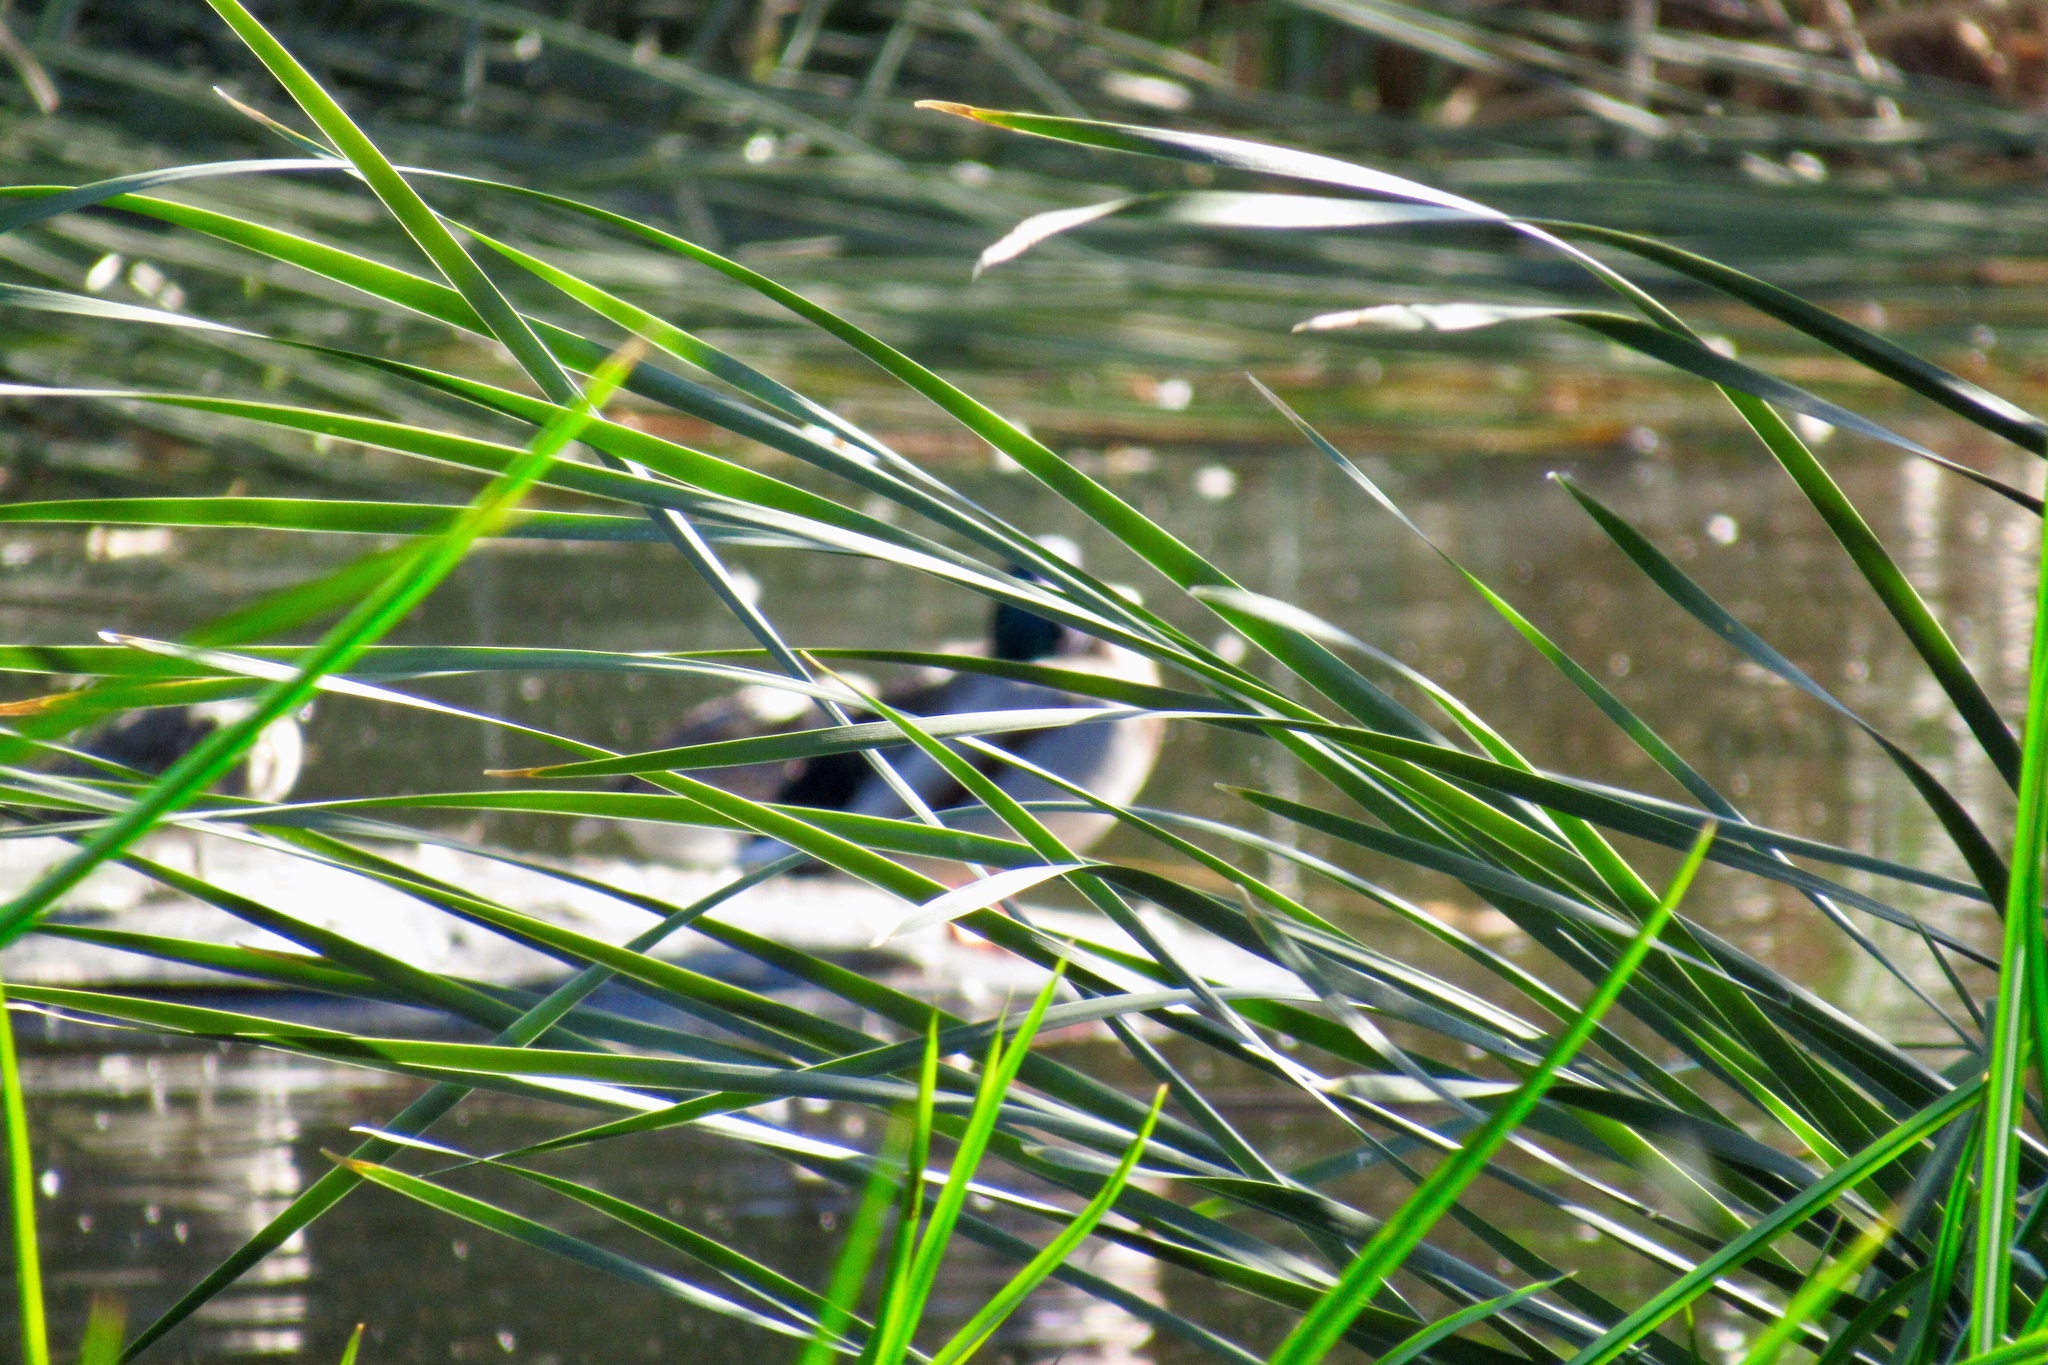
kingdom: Animalia
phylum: Chordata
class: Aves
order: Anseriformes
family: Anatidae
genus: Anas
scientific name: Anas platyrhynchos
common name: Mallard
